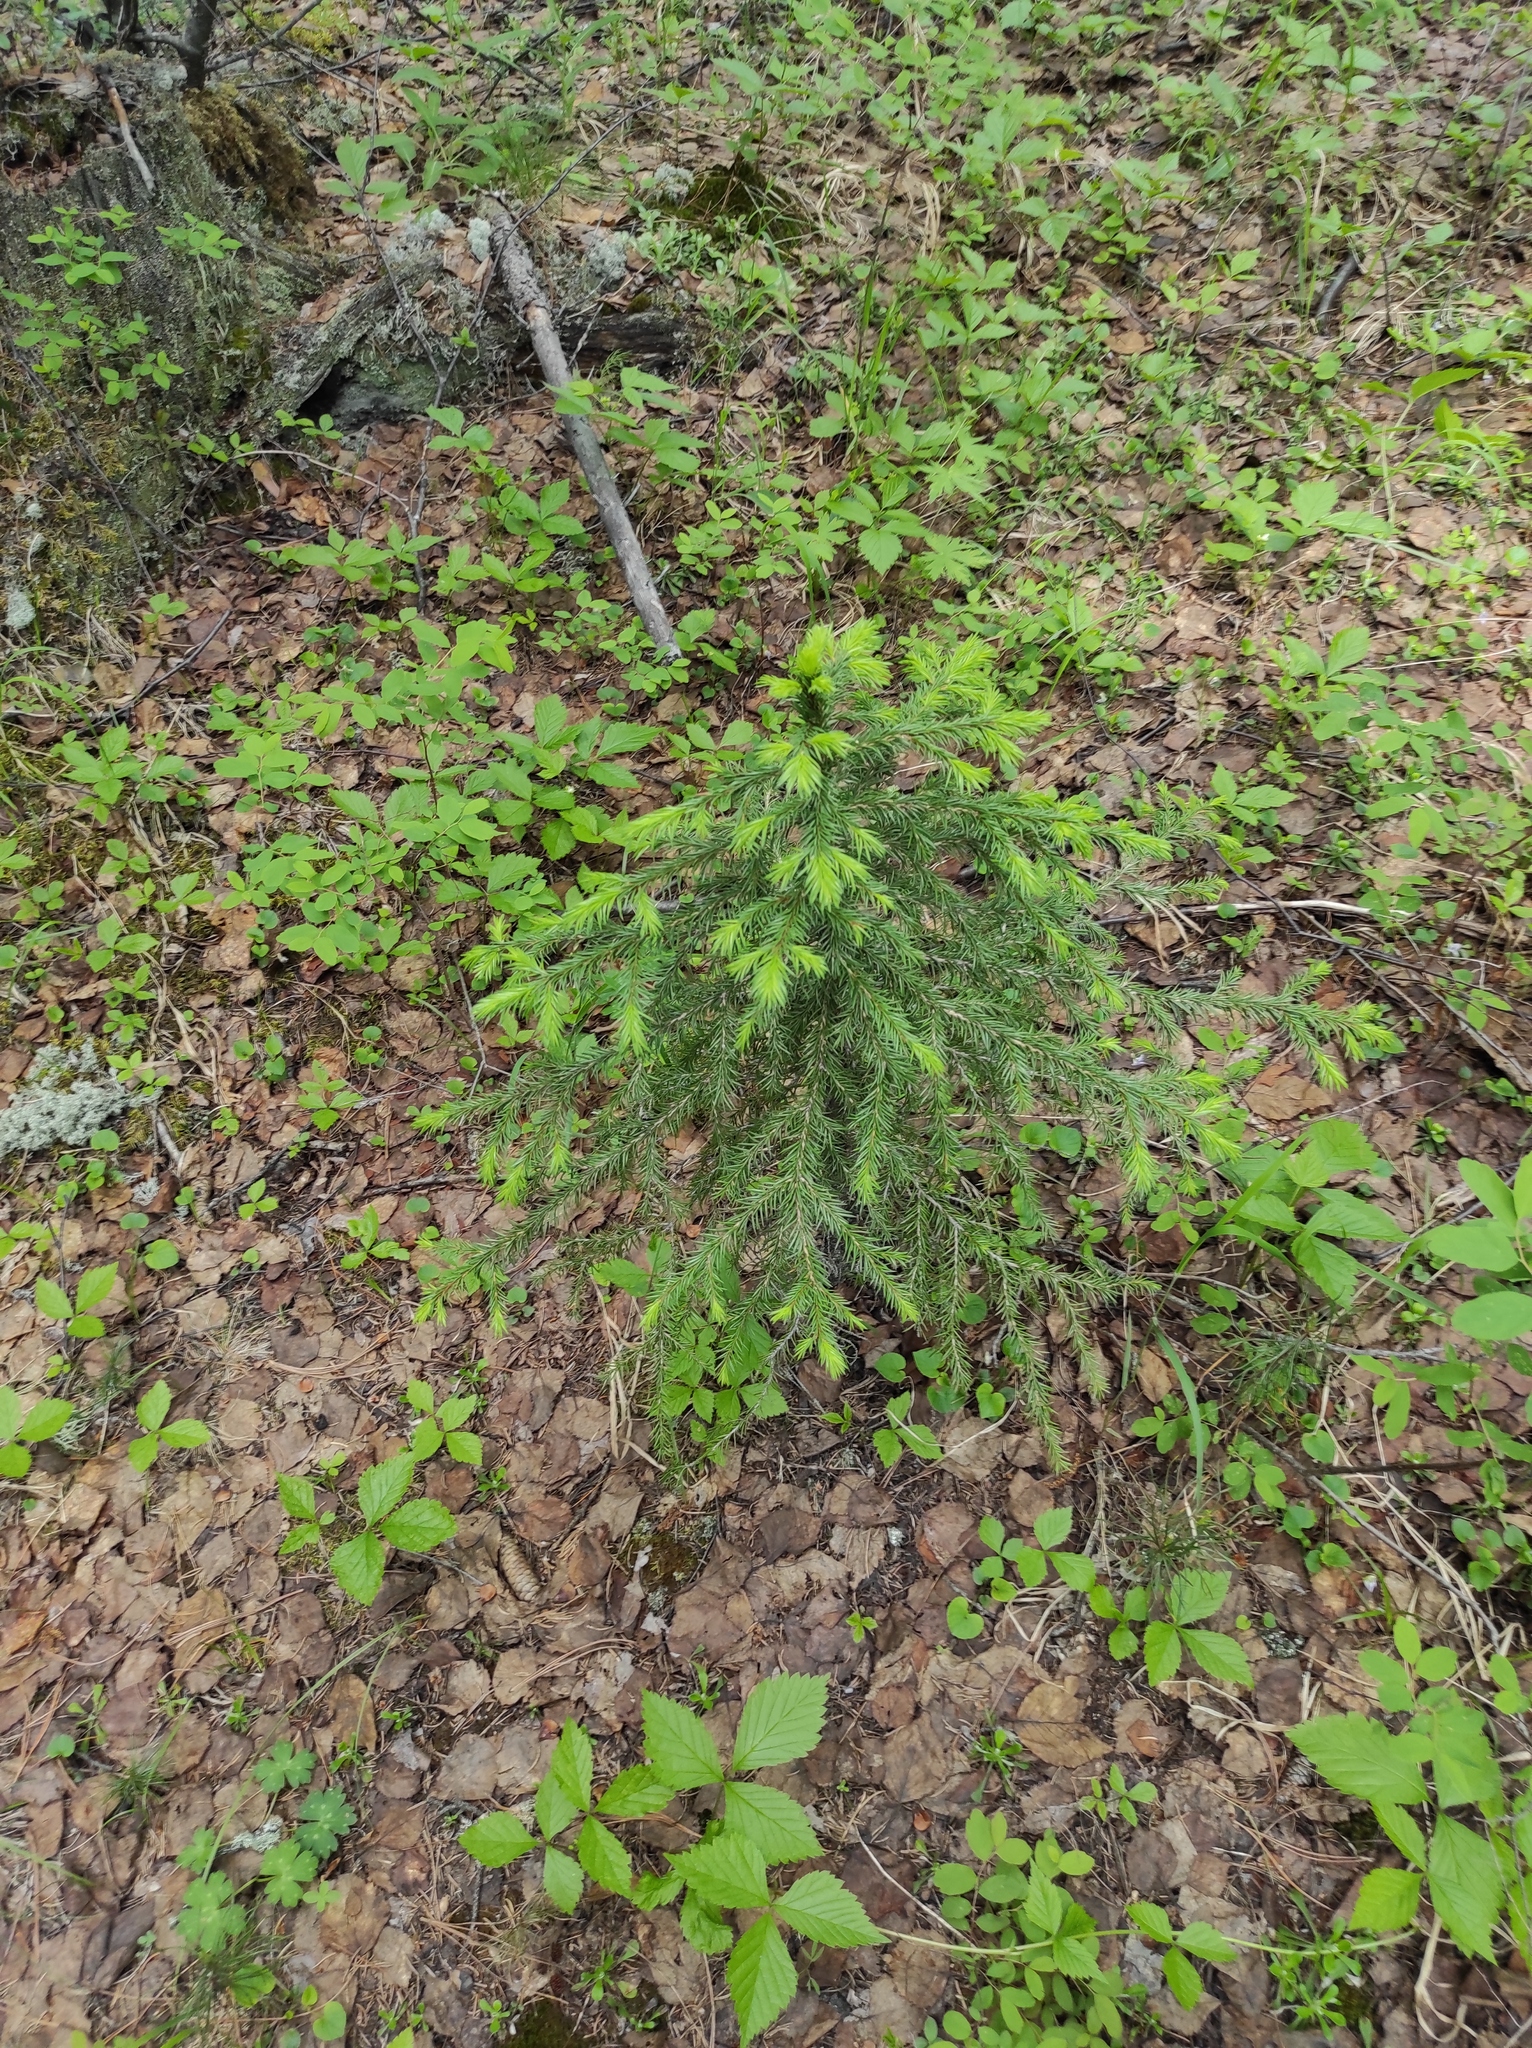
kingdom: Plantae
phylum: Tracheophyta
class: Magnoliopsida
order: Rosales
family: Rosaceae
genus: Rubus
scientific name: Rubus saxatilis
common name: Stone bramble
